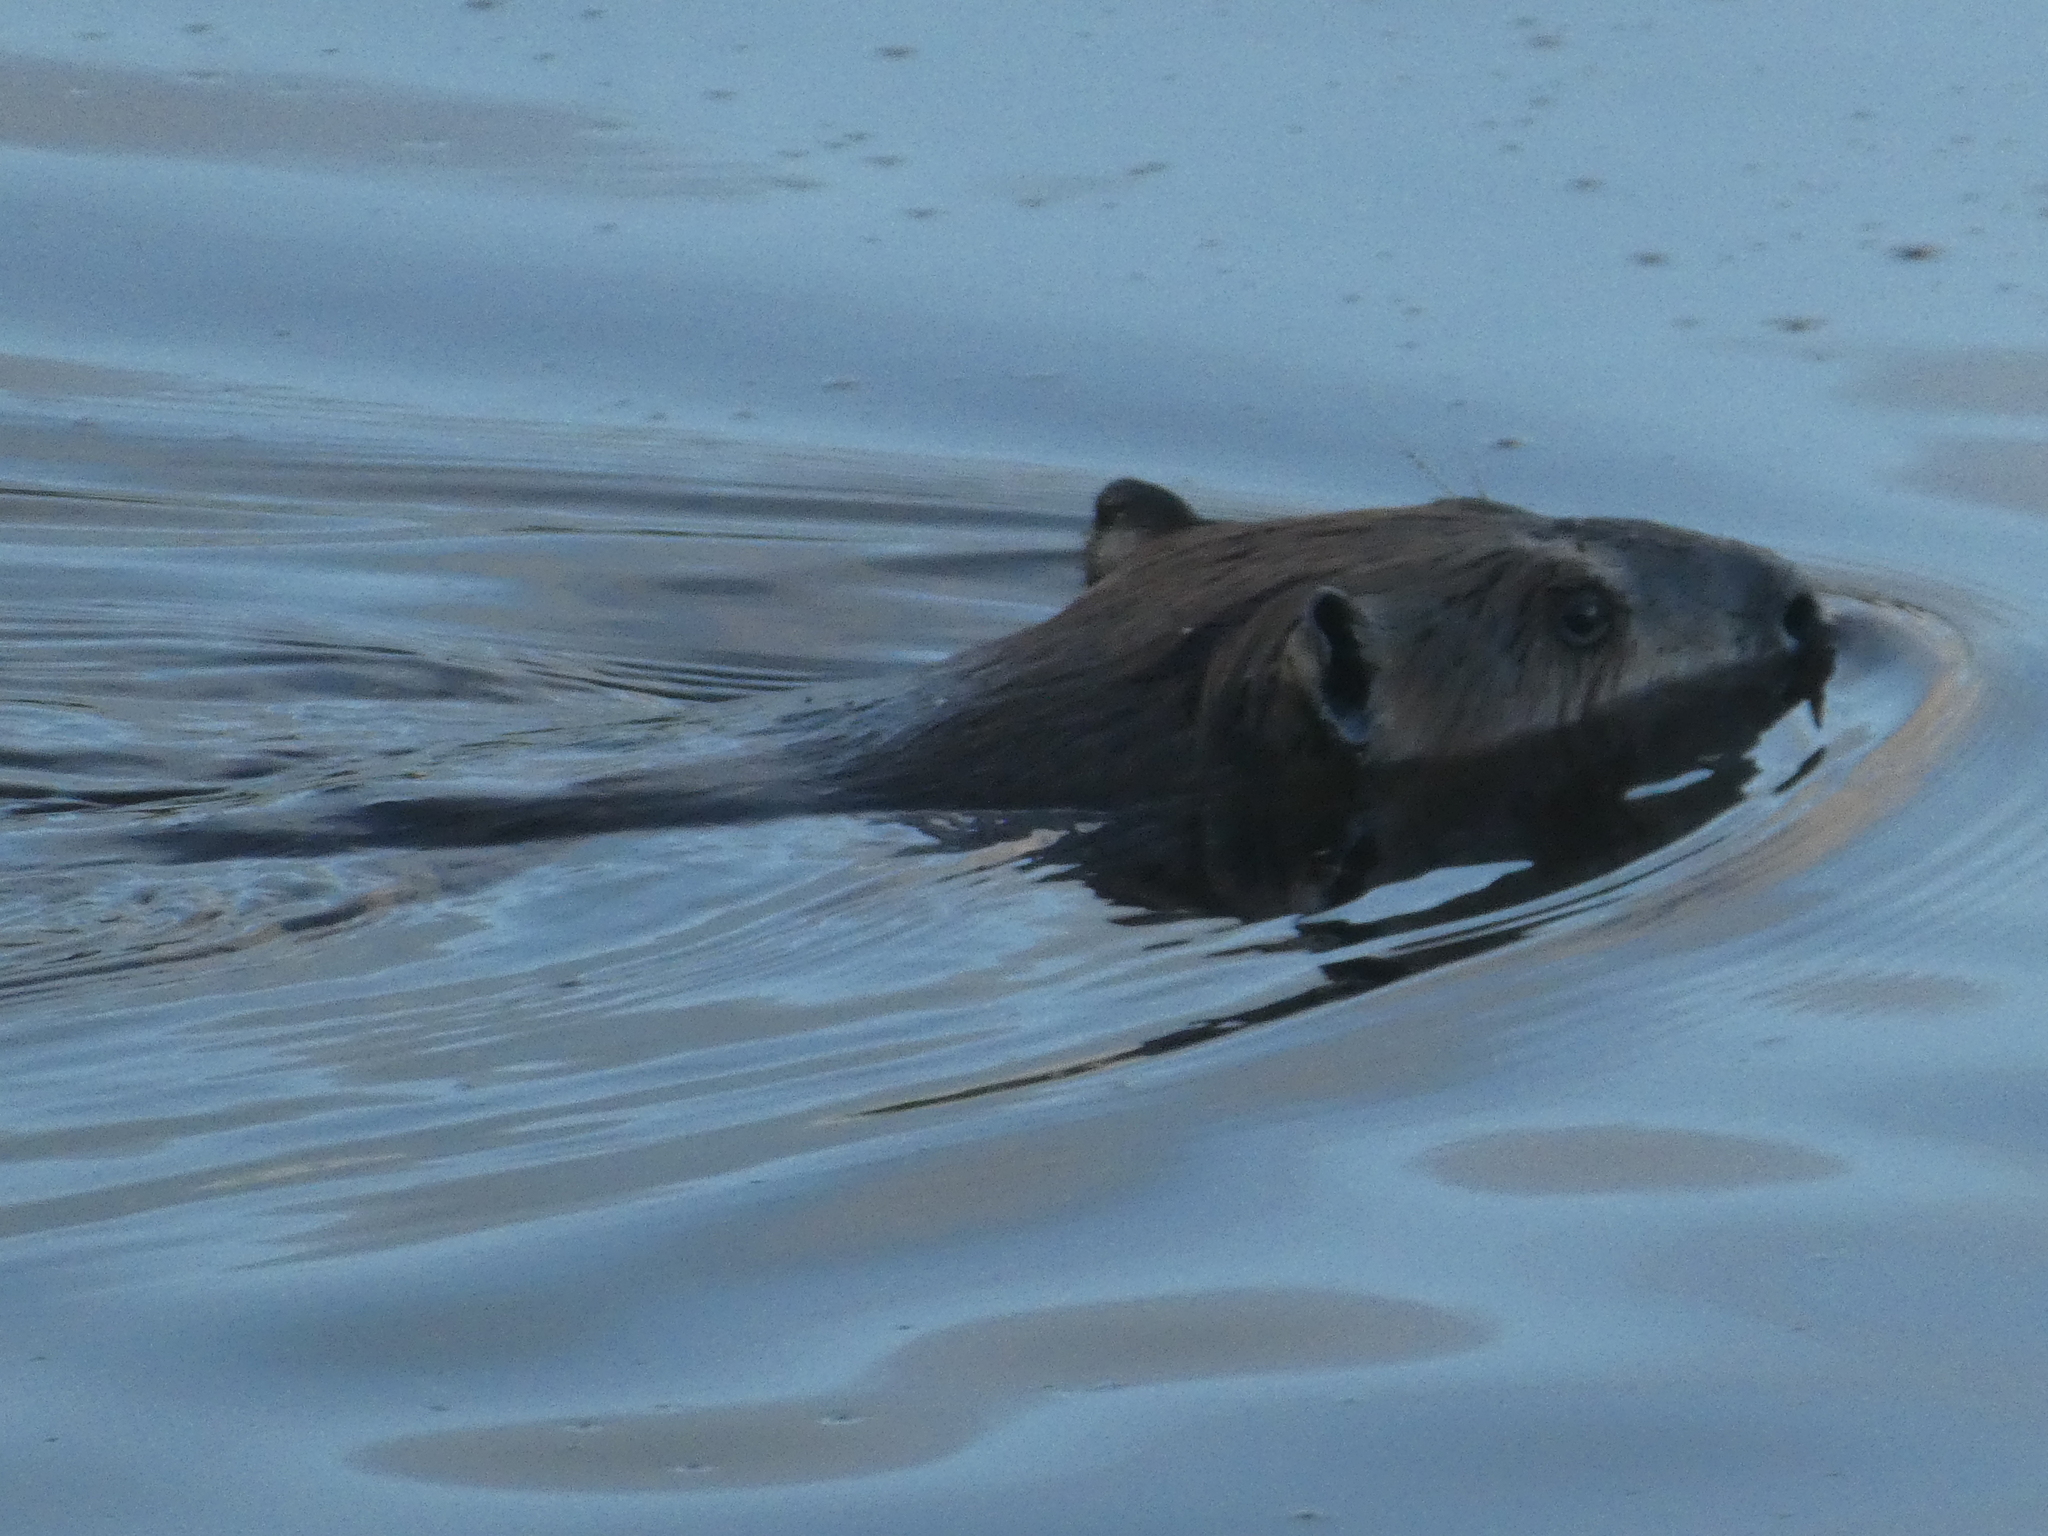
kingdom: Animalia
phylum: Chordata
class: Mammalia
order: Rodentia
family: Castoridae
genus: Castor
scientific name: Castor canadensis
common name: American beaver
